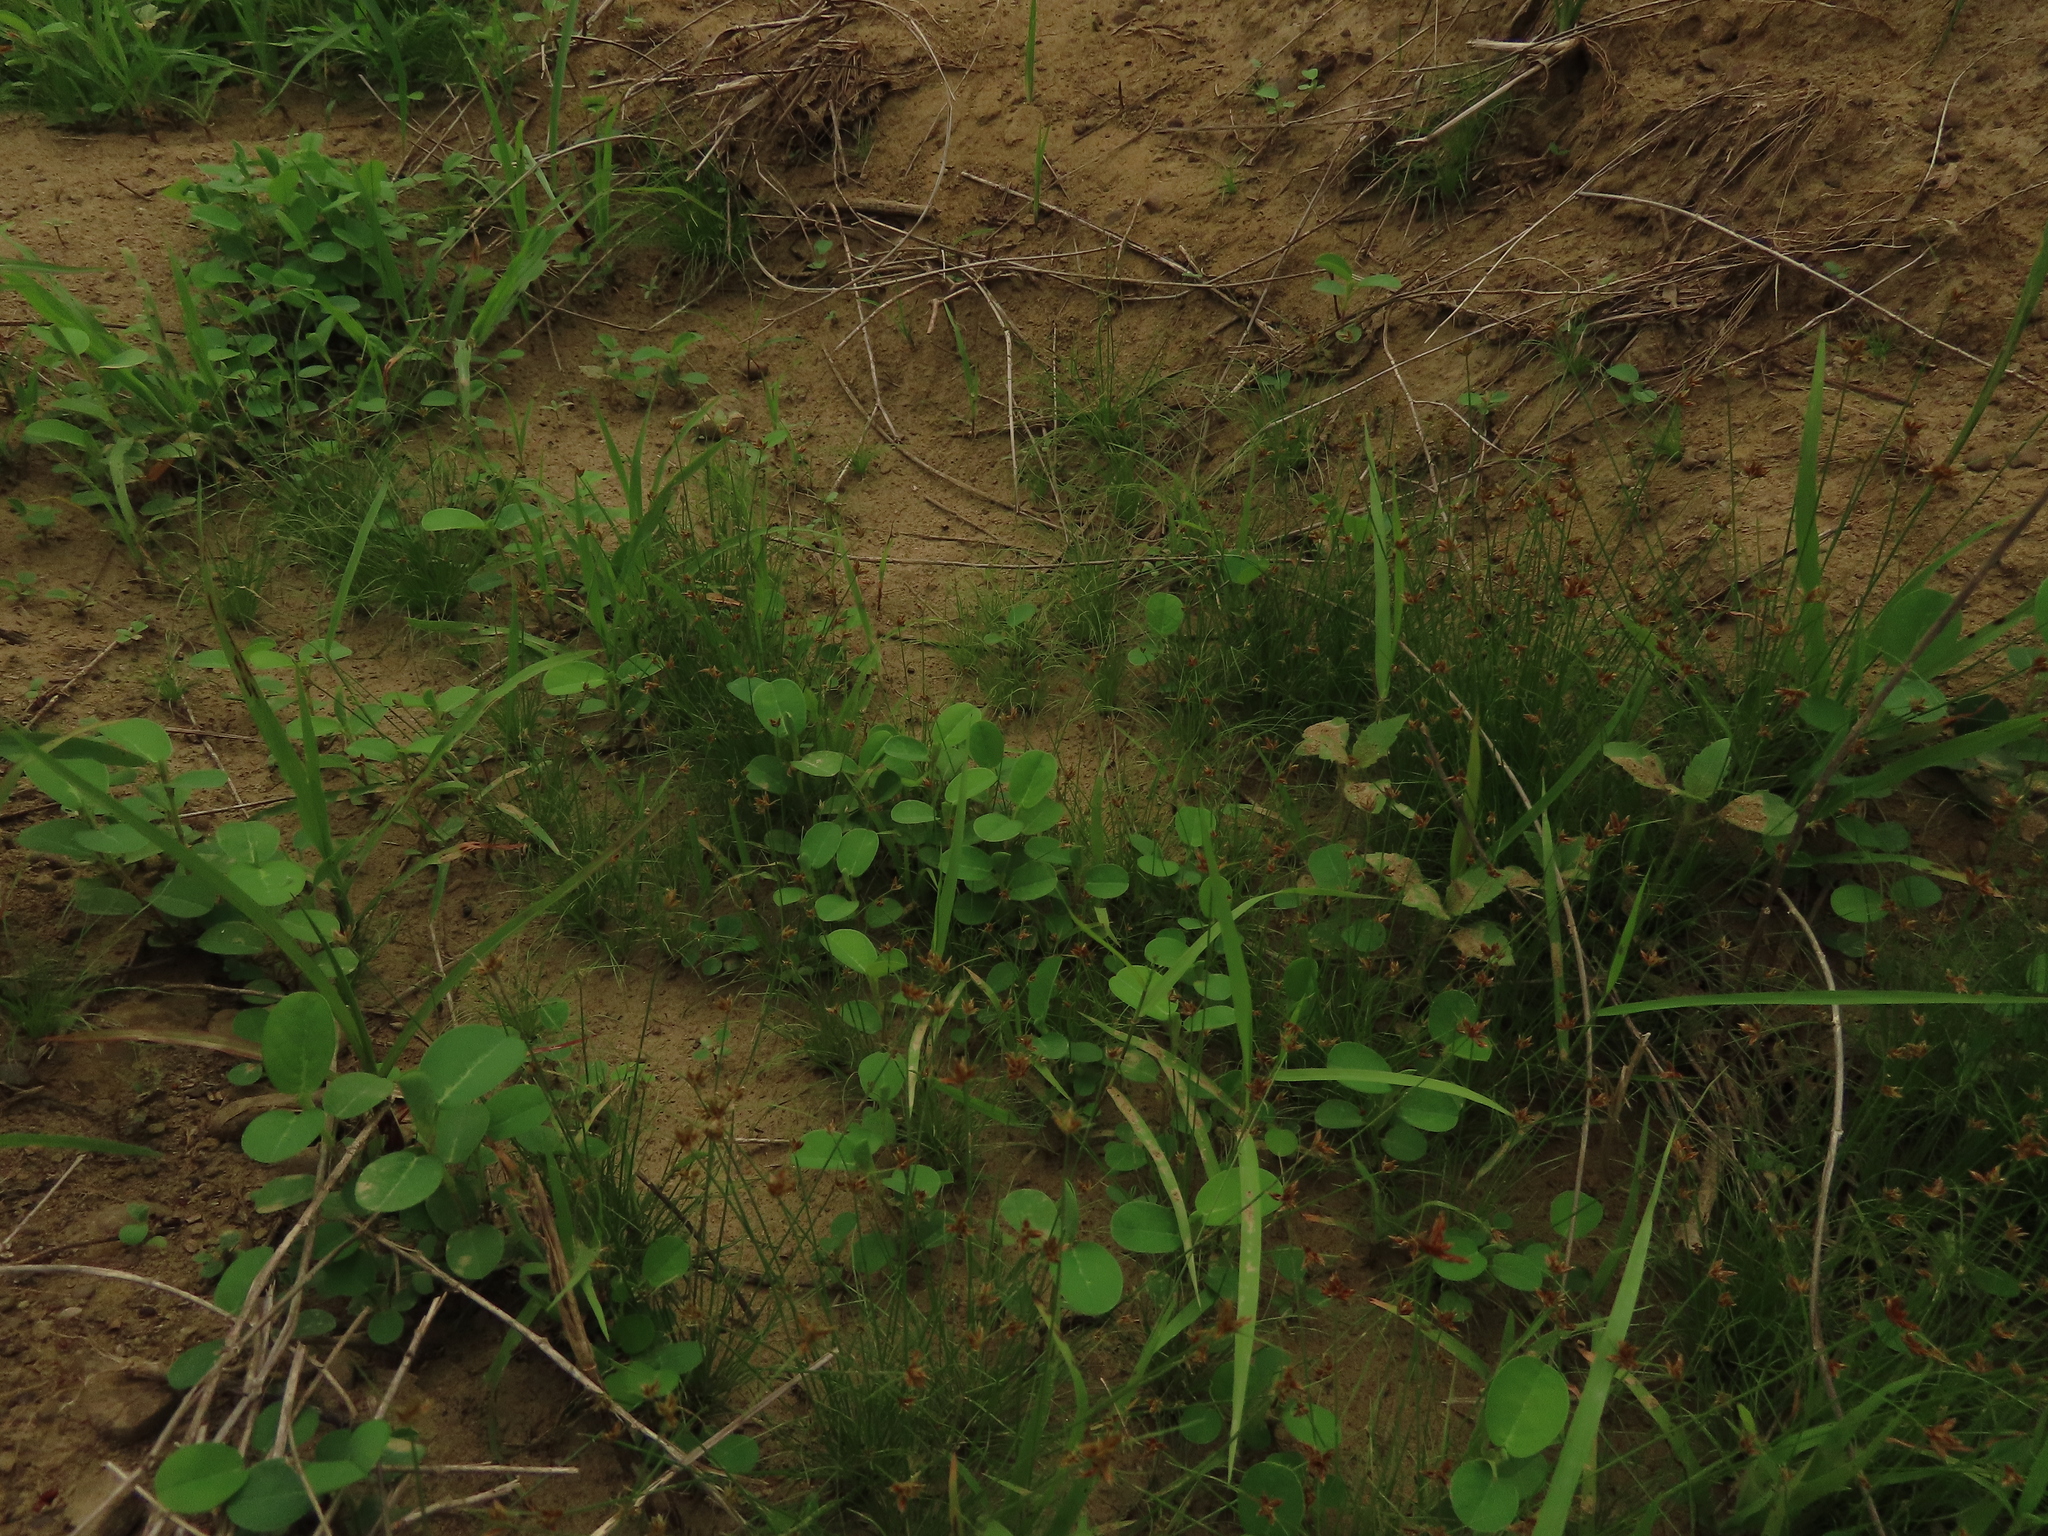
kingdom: Plantae
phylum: Tracheophyta
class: Liliopsida
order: Poales
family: Cyperaceae
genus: Bulbostylis
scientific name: Bulbostylis barbata
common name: Watergrass
